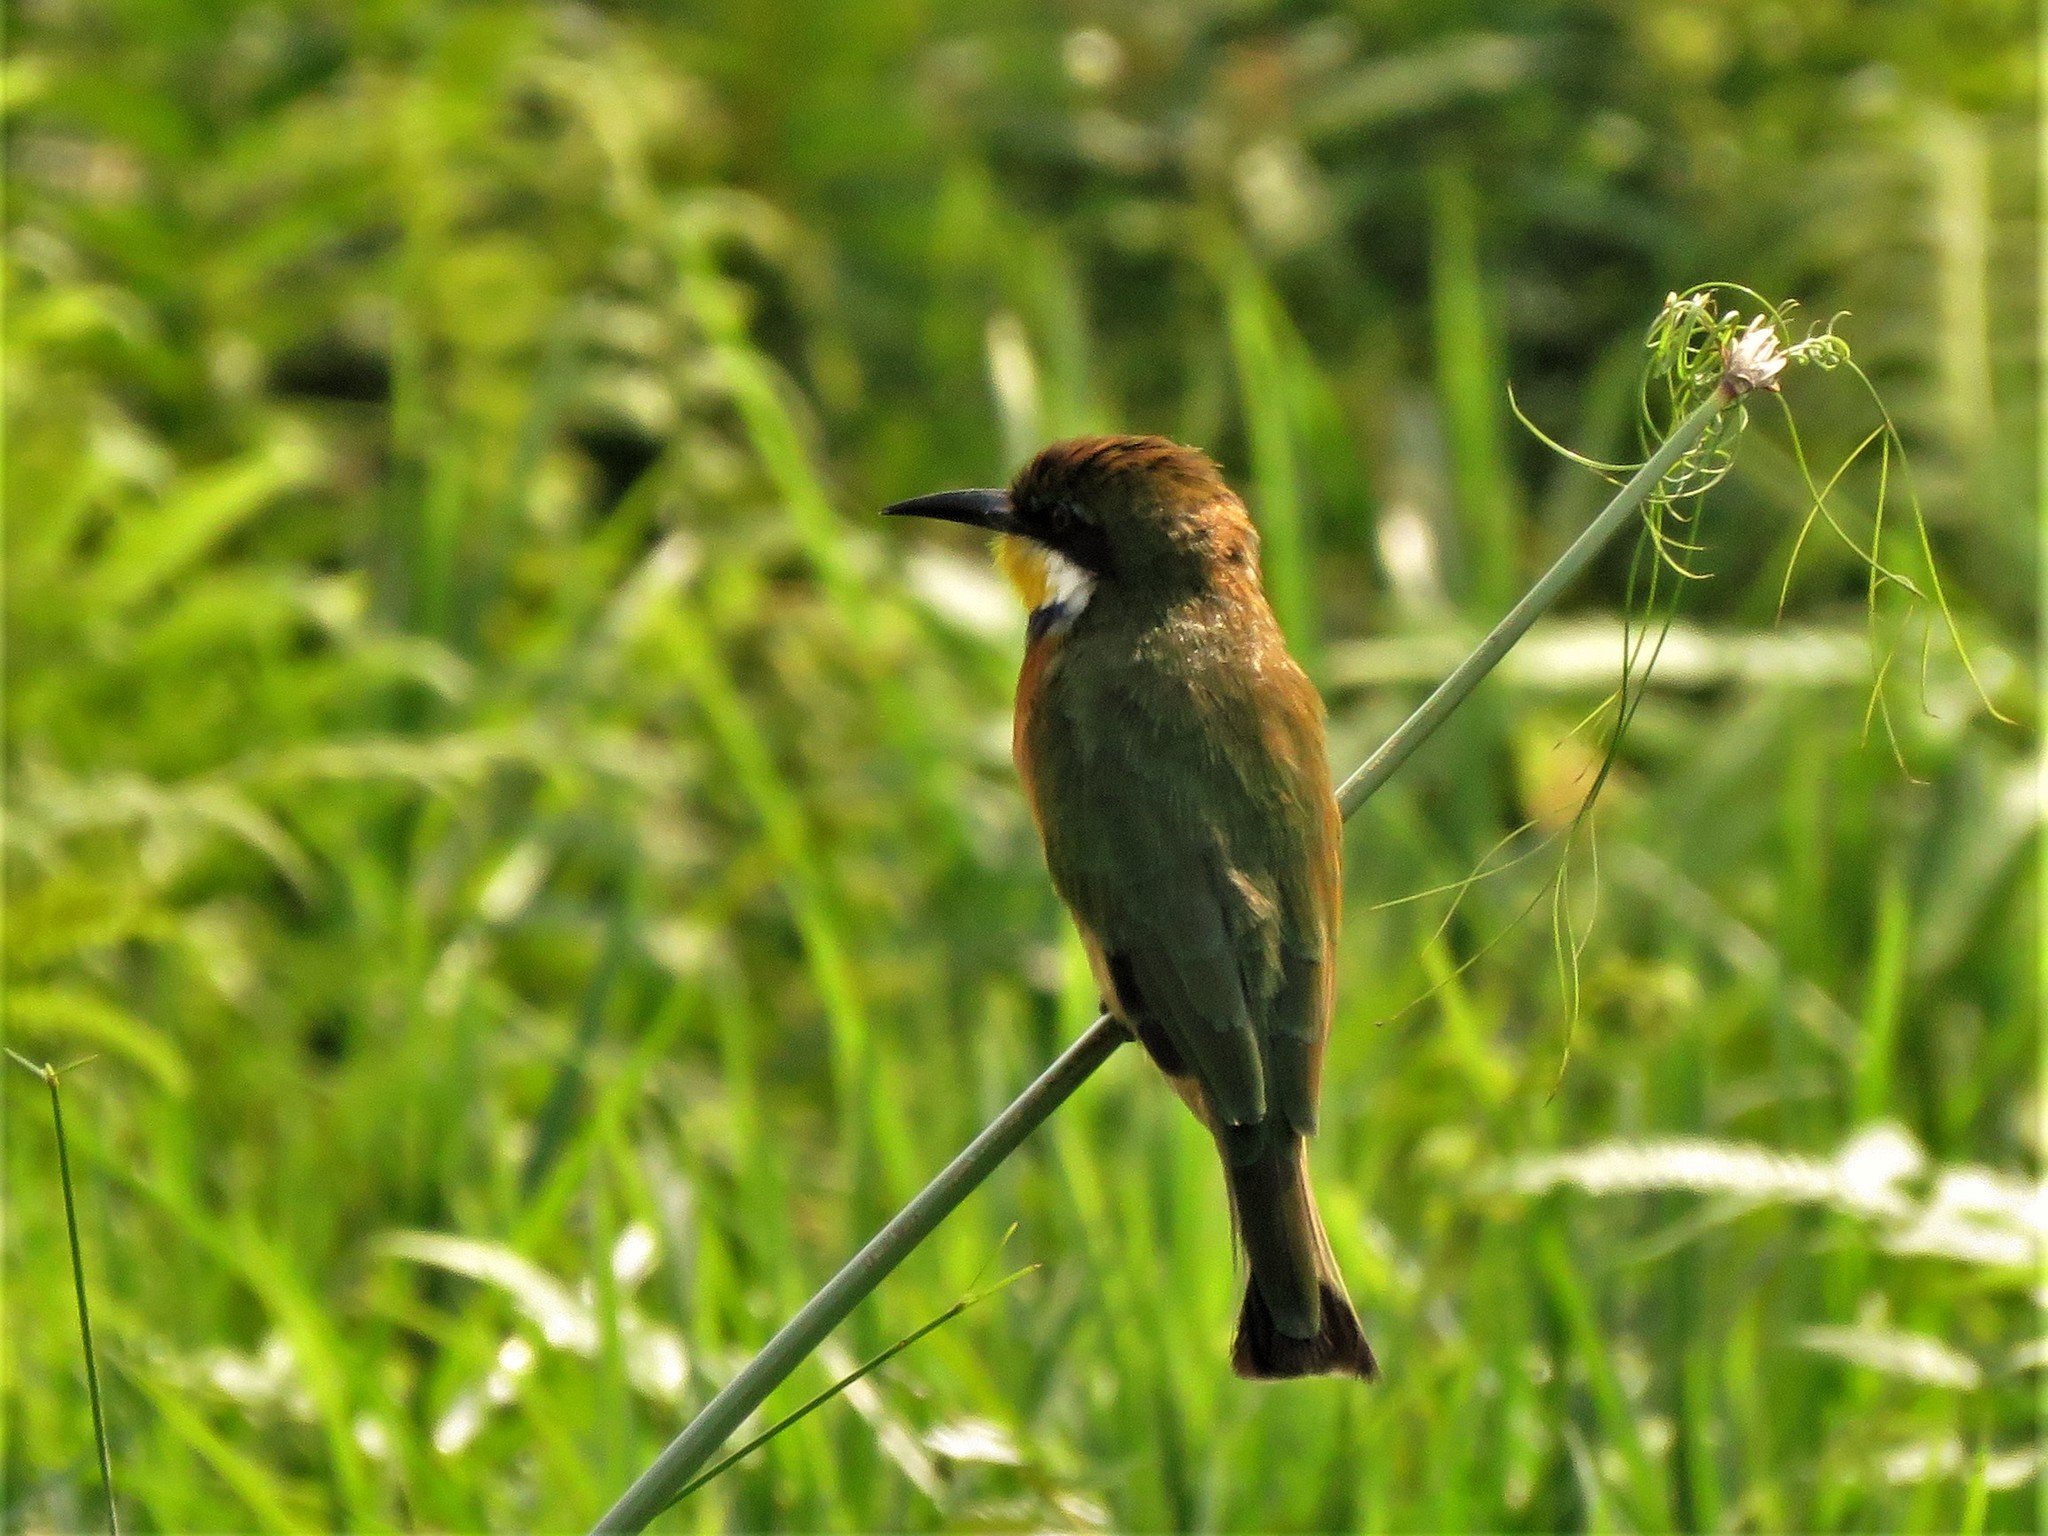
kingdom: Animalia
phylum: Chordata
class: Aves
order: Coraciiformes
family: Meropidae
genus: Merops
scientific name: Merops variegatus
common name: Blue-breasted bee-eater
